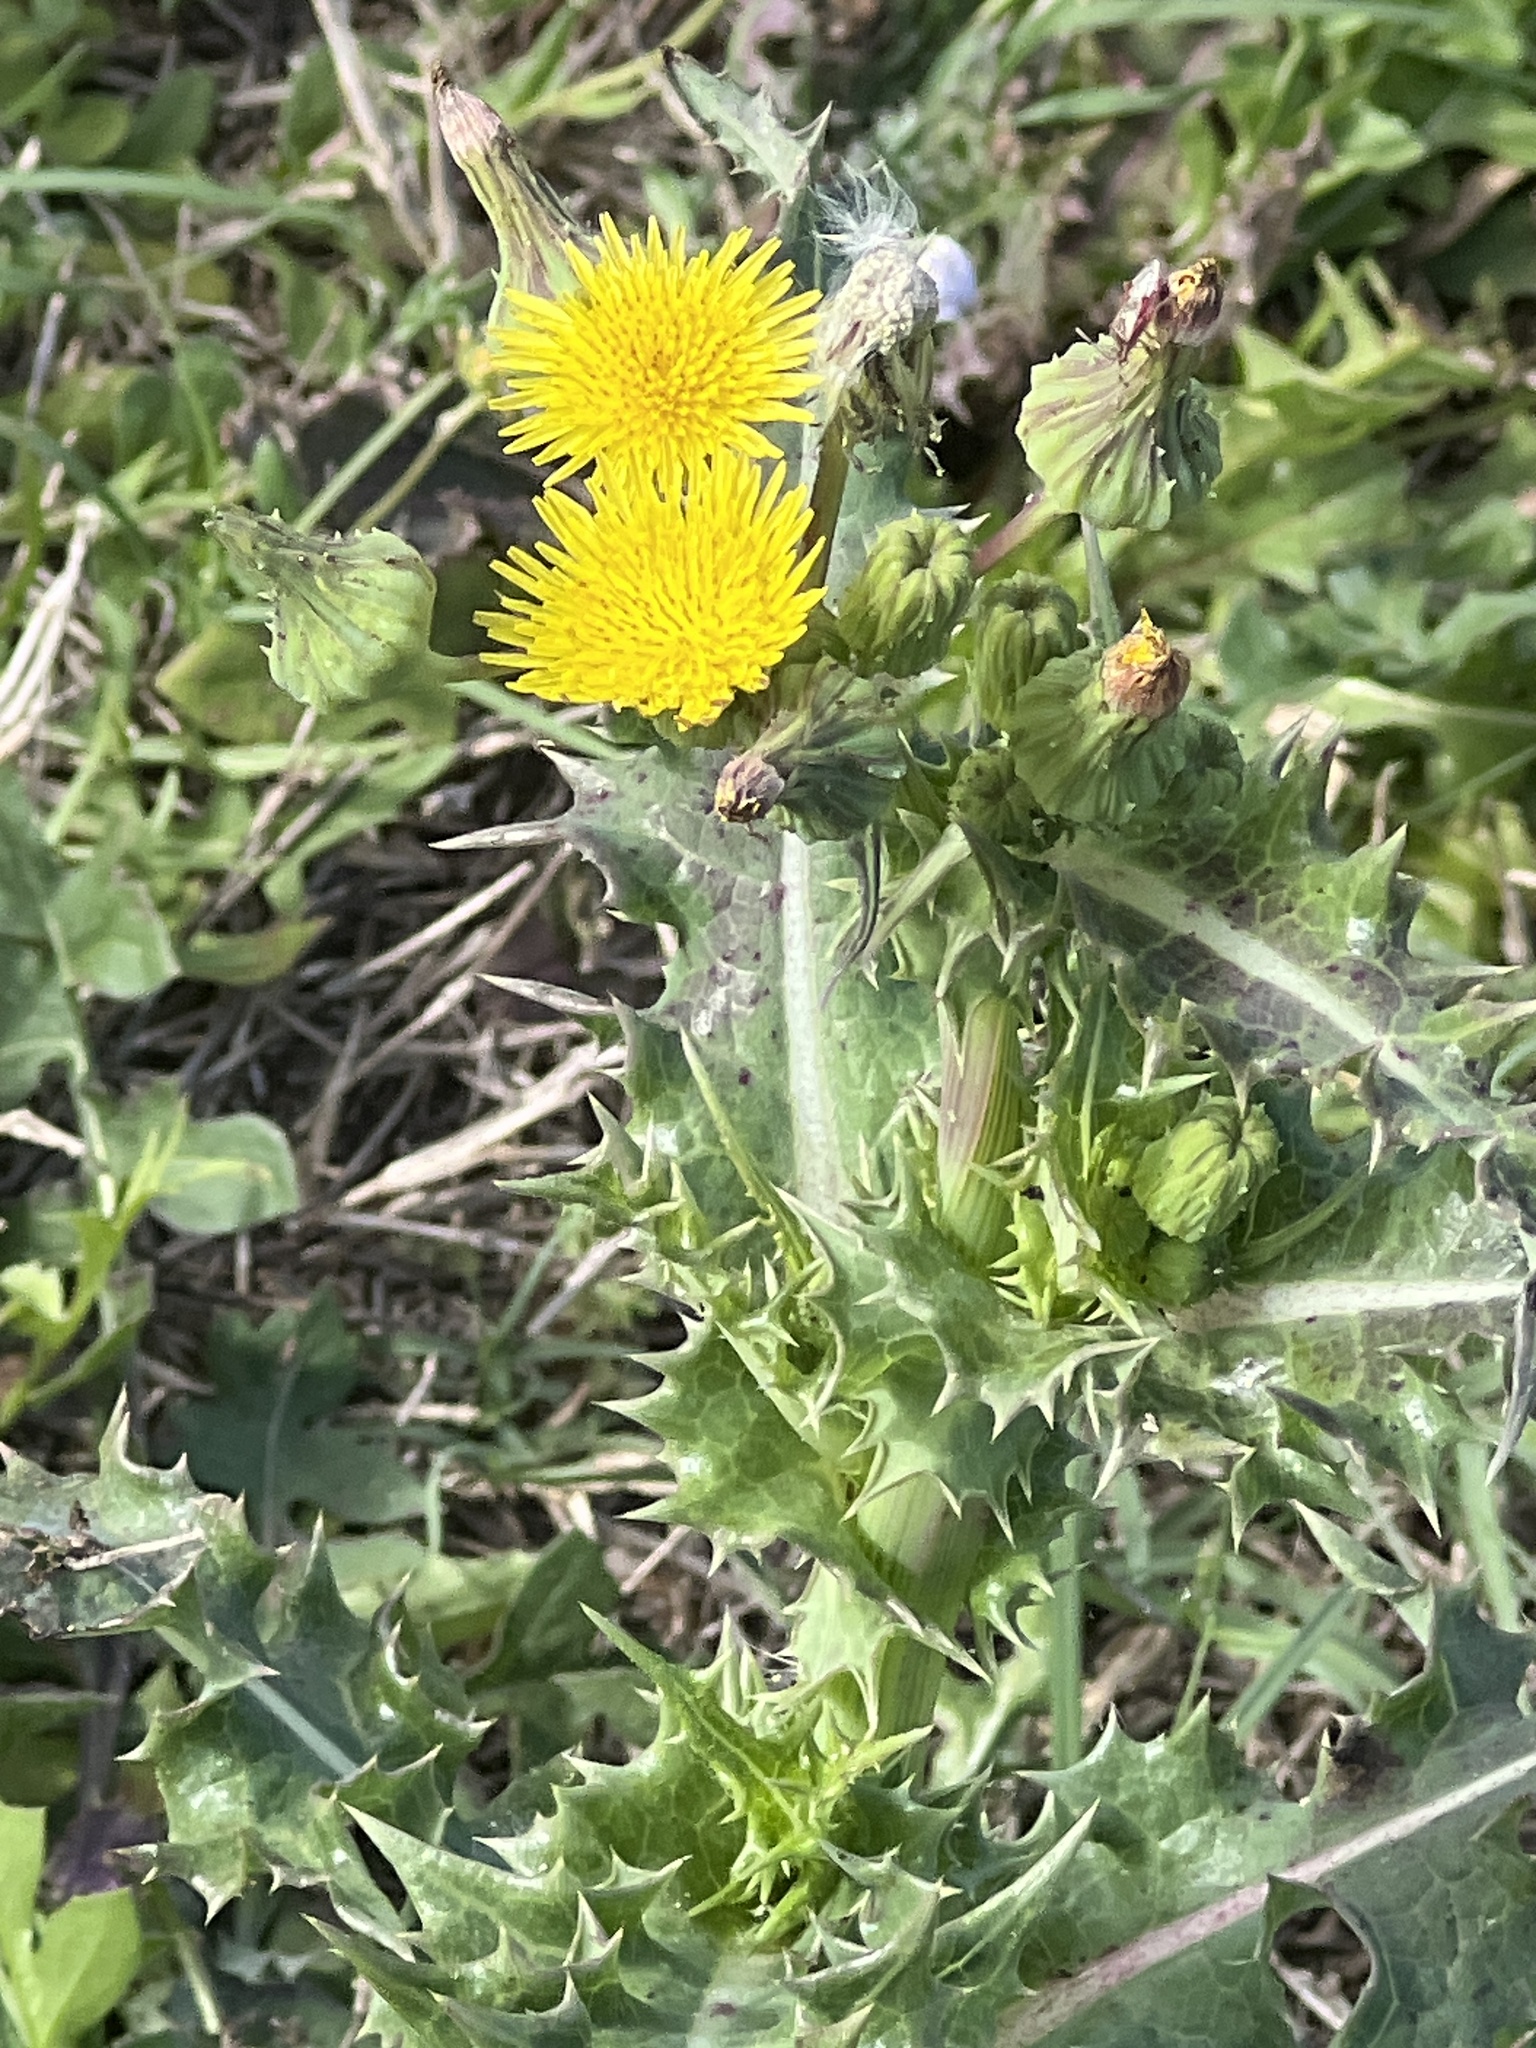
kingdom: Plantae
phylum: Tracheophyta
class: Magnoliopsida
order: Asterales
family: Asteraceae
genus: Sonchus
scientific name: Sonchus asper
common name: Prickly sow-thistle
